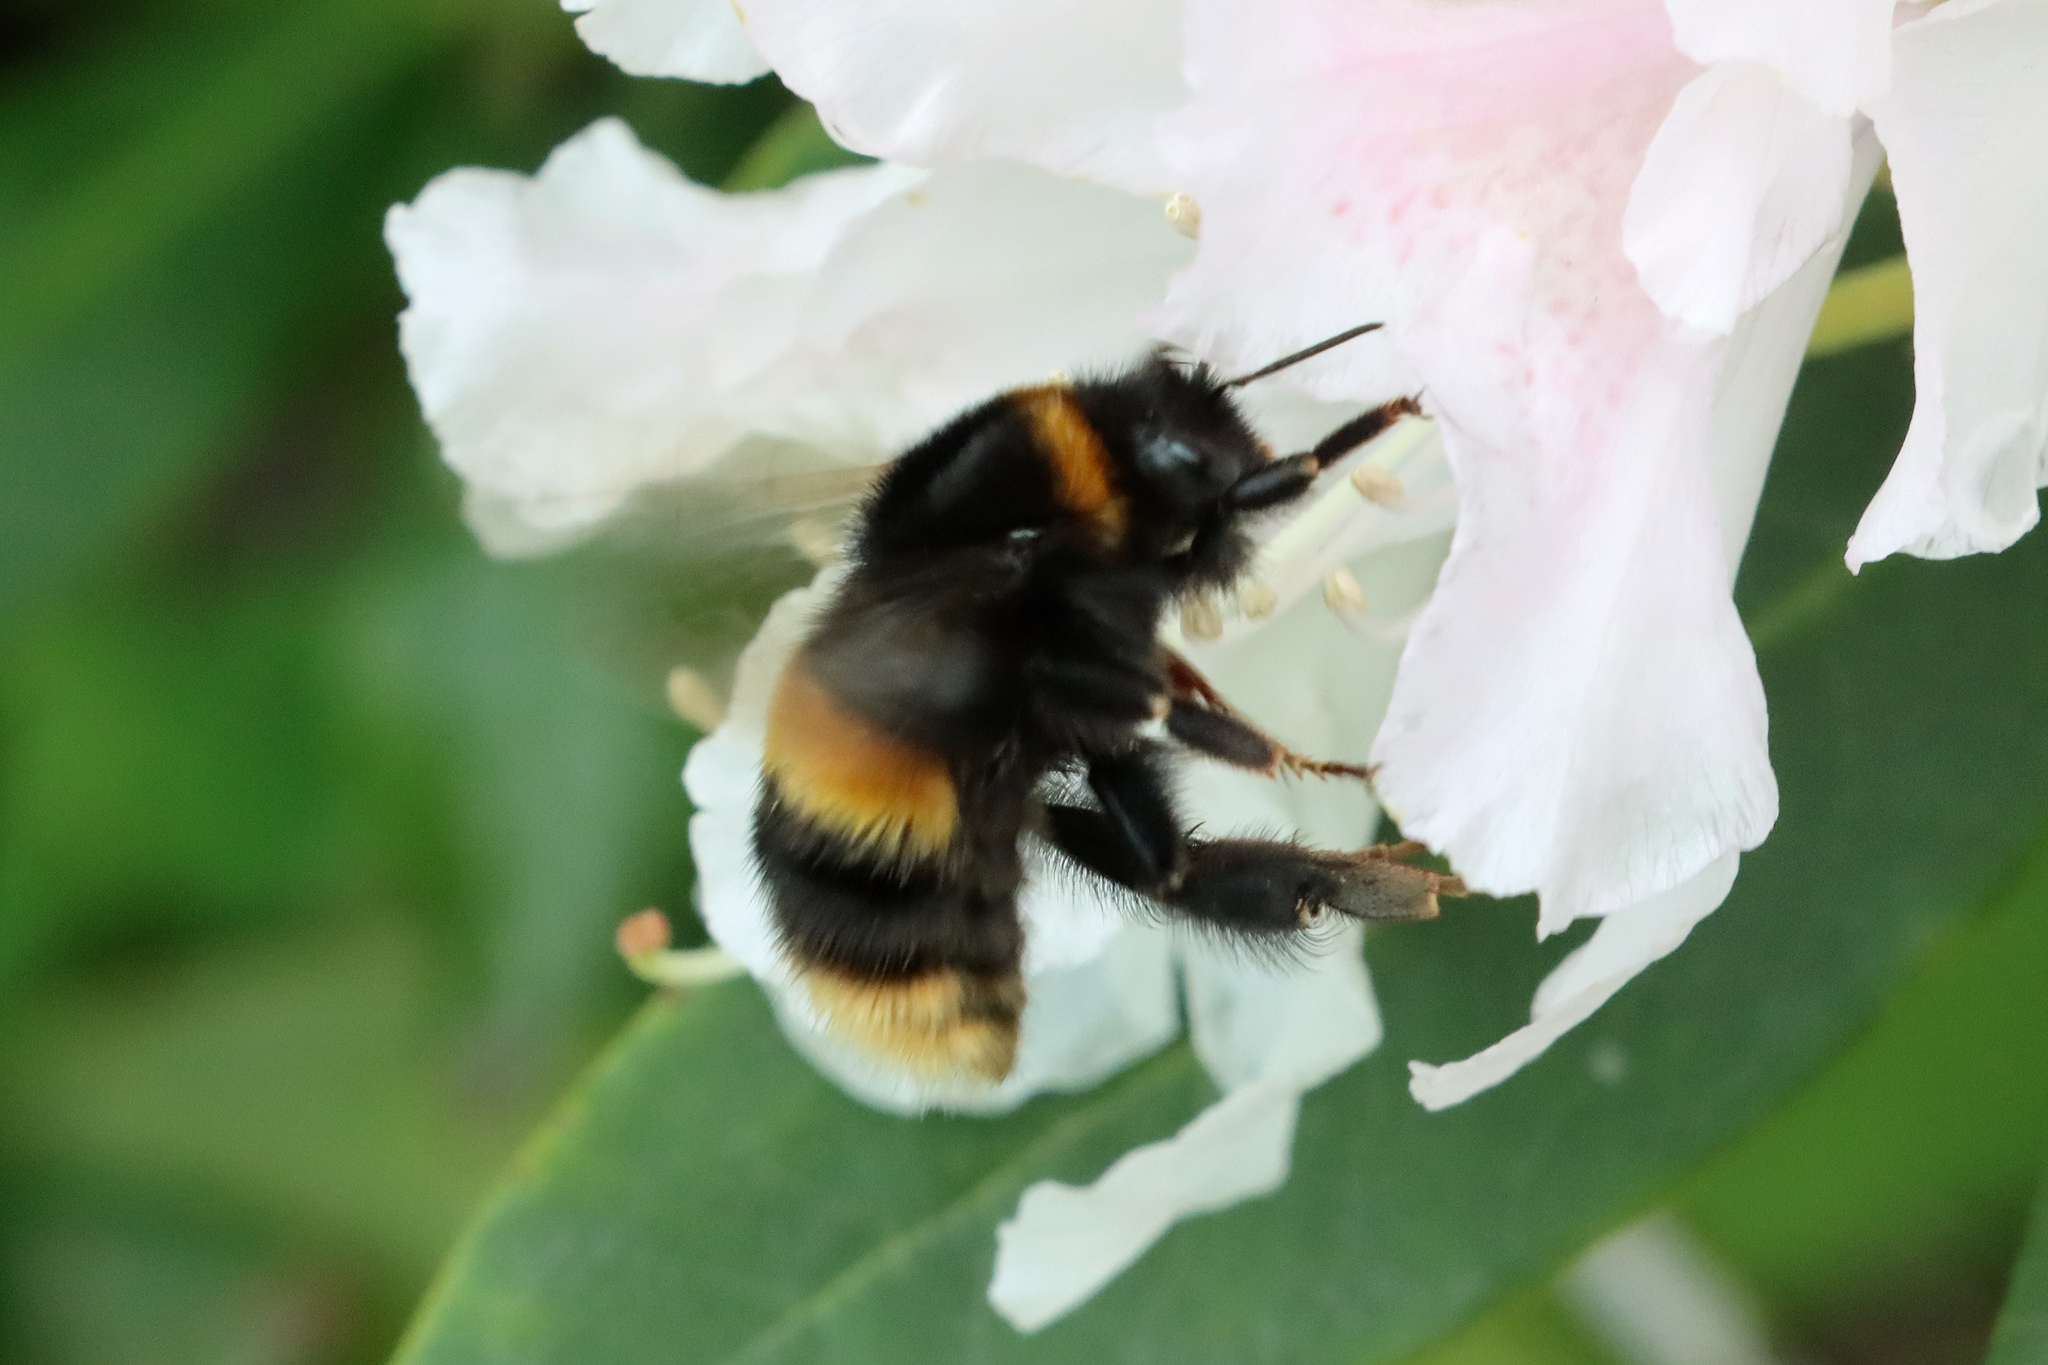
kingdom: Animalia
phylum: Arthropoda
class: Insecta
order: Hymenoptera
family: Apidae
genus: Bombus
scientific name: Bombus terrestris
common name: Buff-tailed bumblebee
